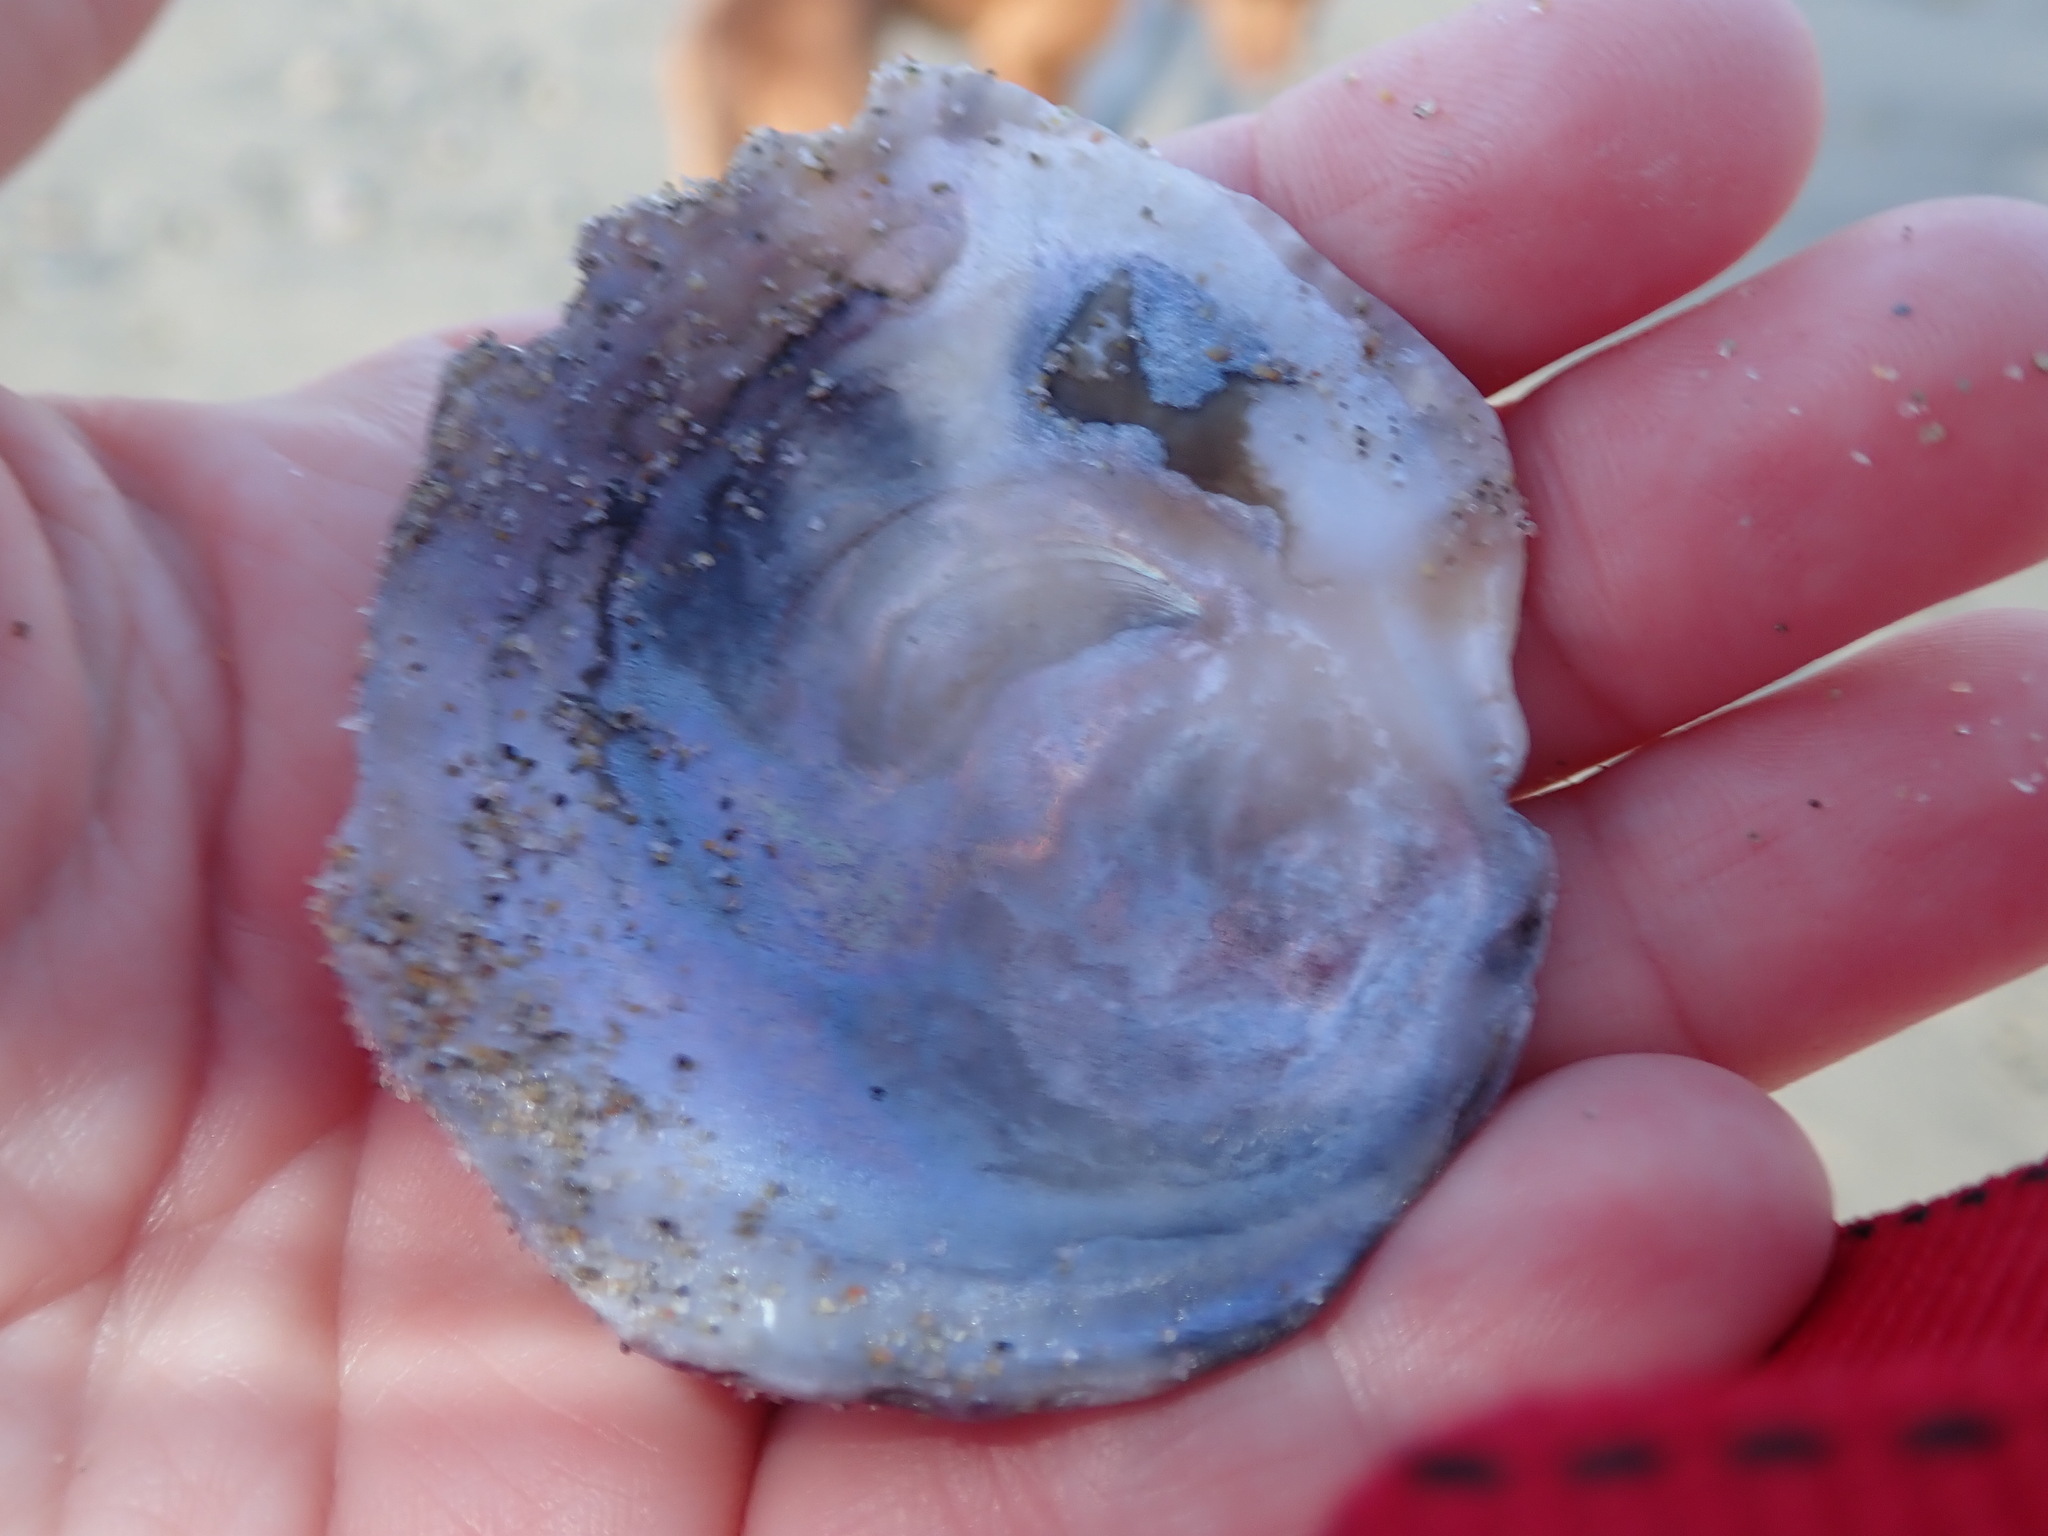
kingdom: Animalia
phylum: Mollusca
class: Bivalvia
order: Ostreida
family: Ostreidae
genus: Ostrea
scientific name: Ostrea edulis
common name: Flat oyster
